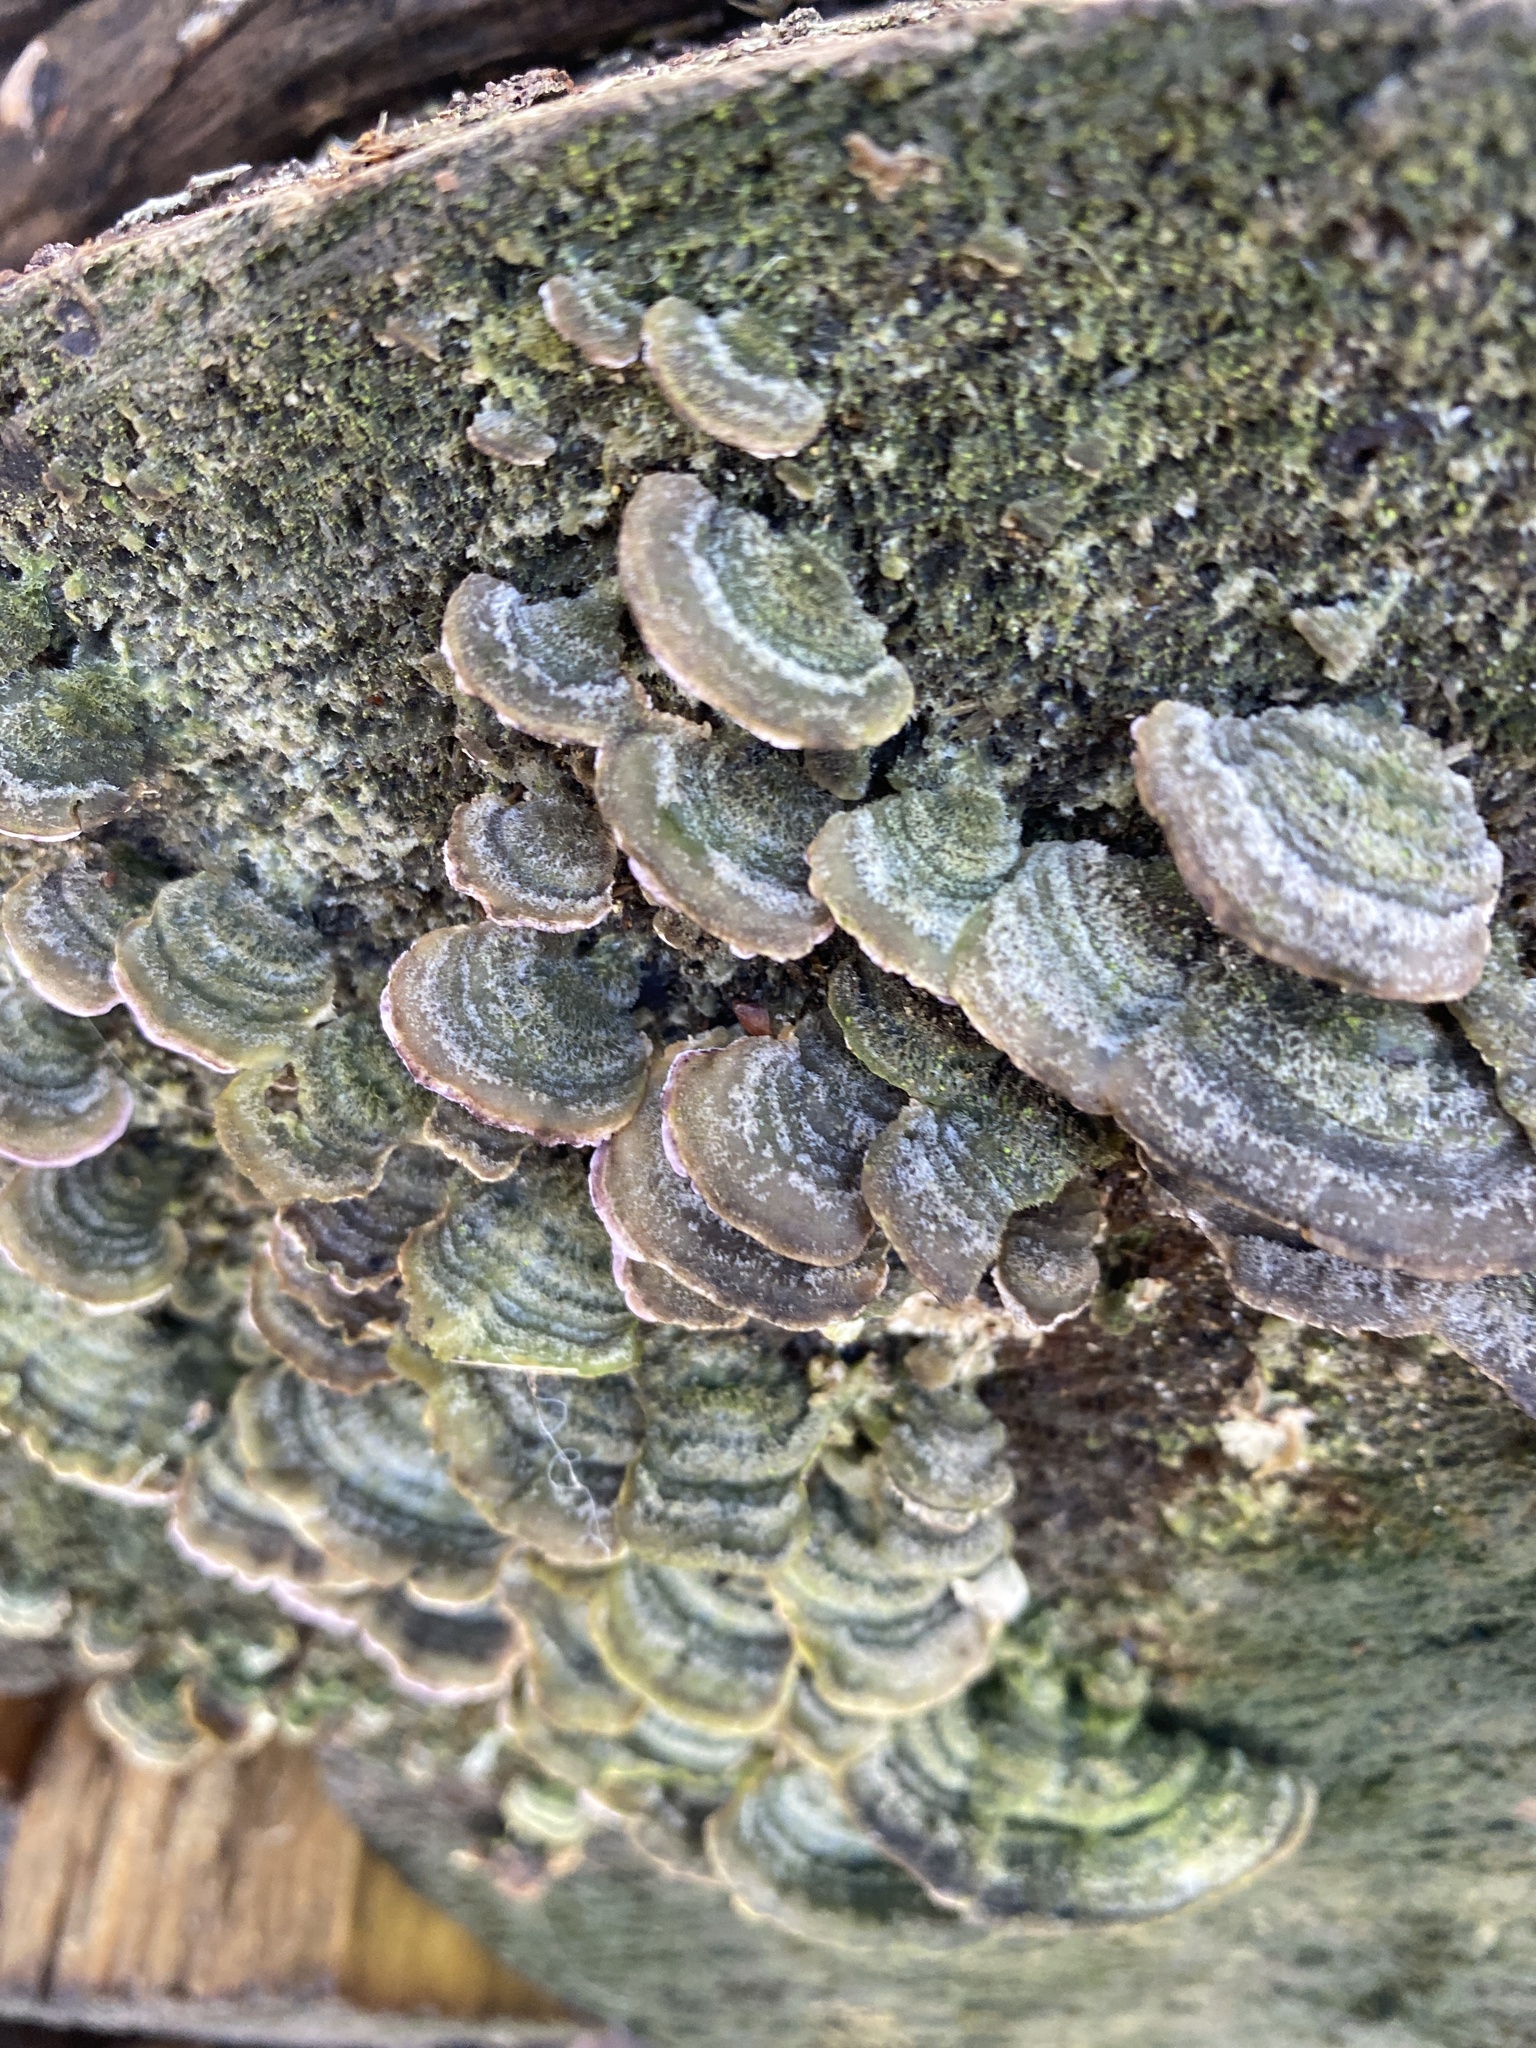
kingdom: Fungi
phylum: Basidiomycota
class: Agaricomycetes
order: Hymenochaetales
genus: Trichaptum
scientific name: Trichaptum abietinum
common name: Purplepore bracket
